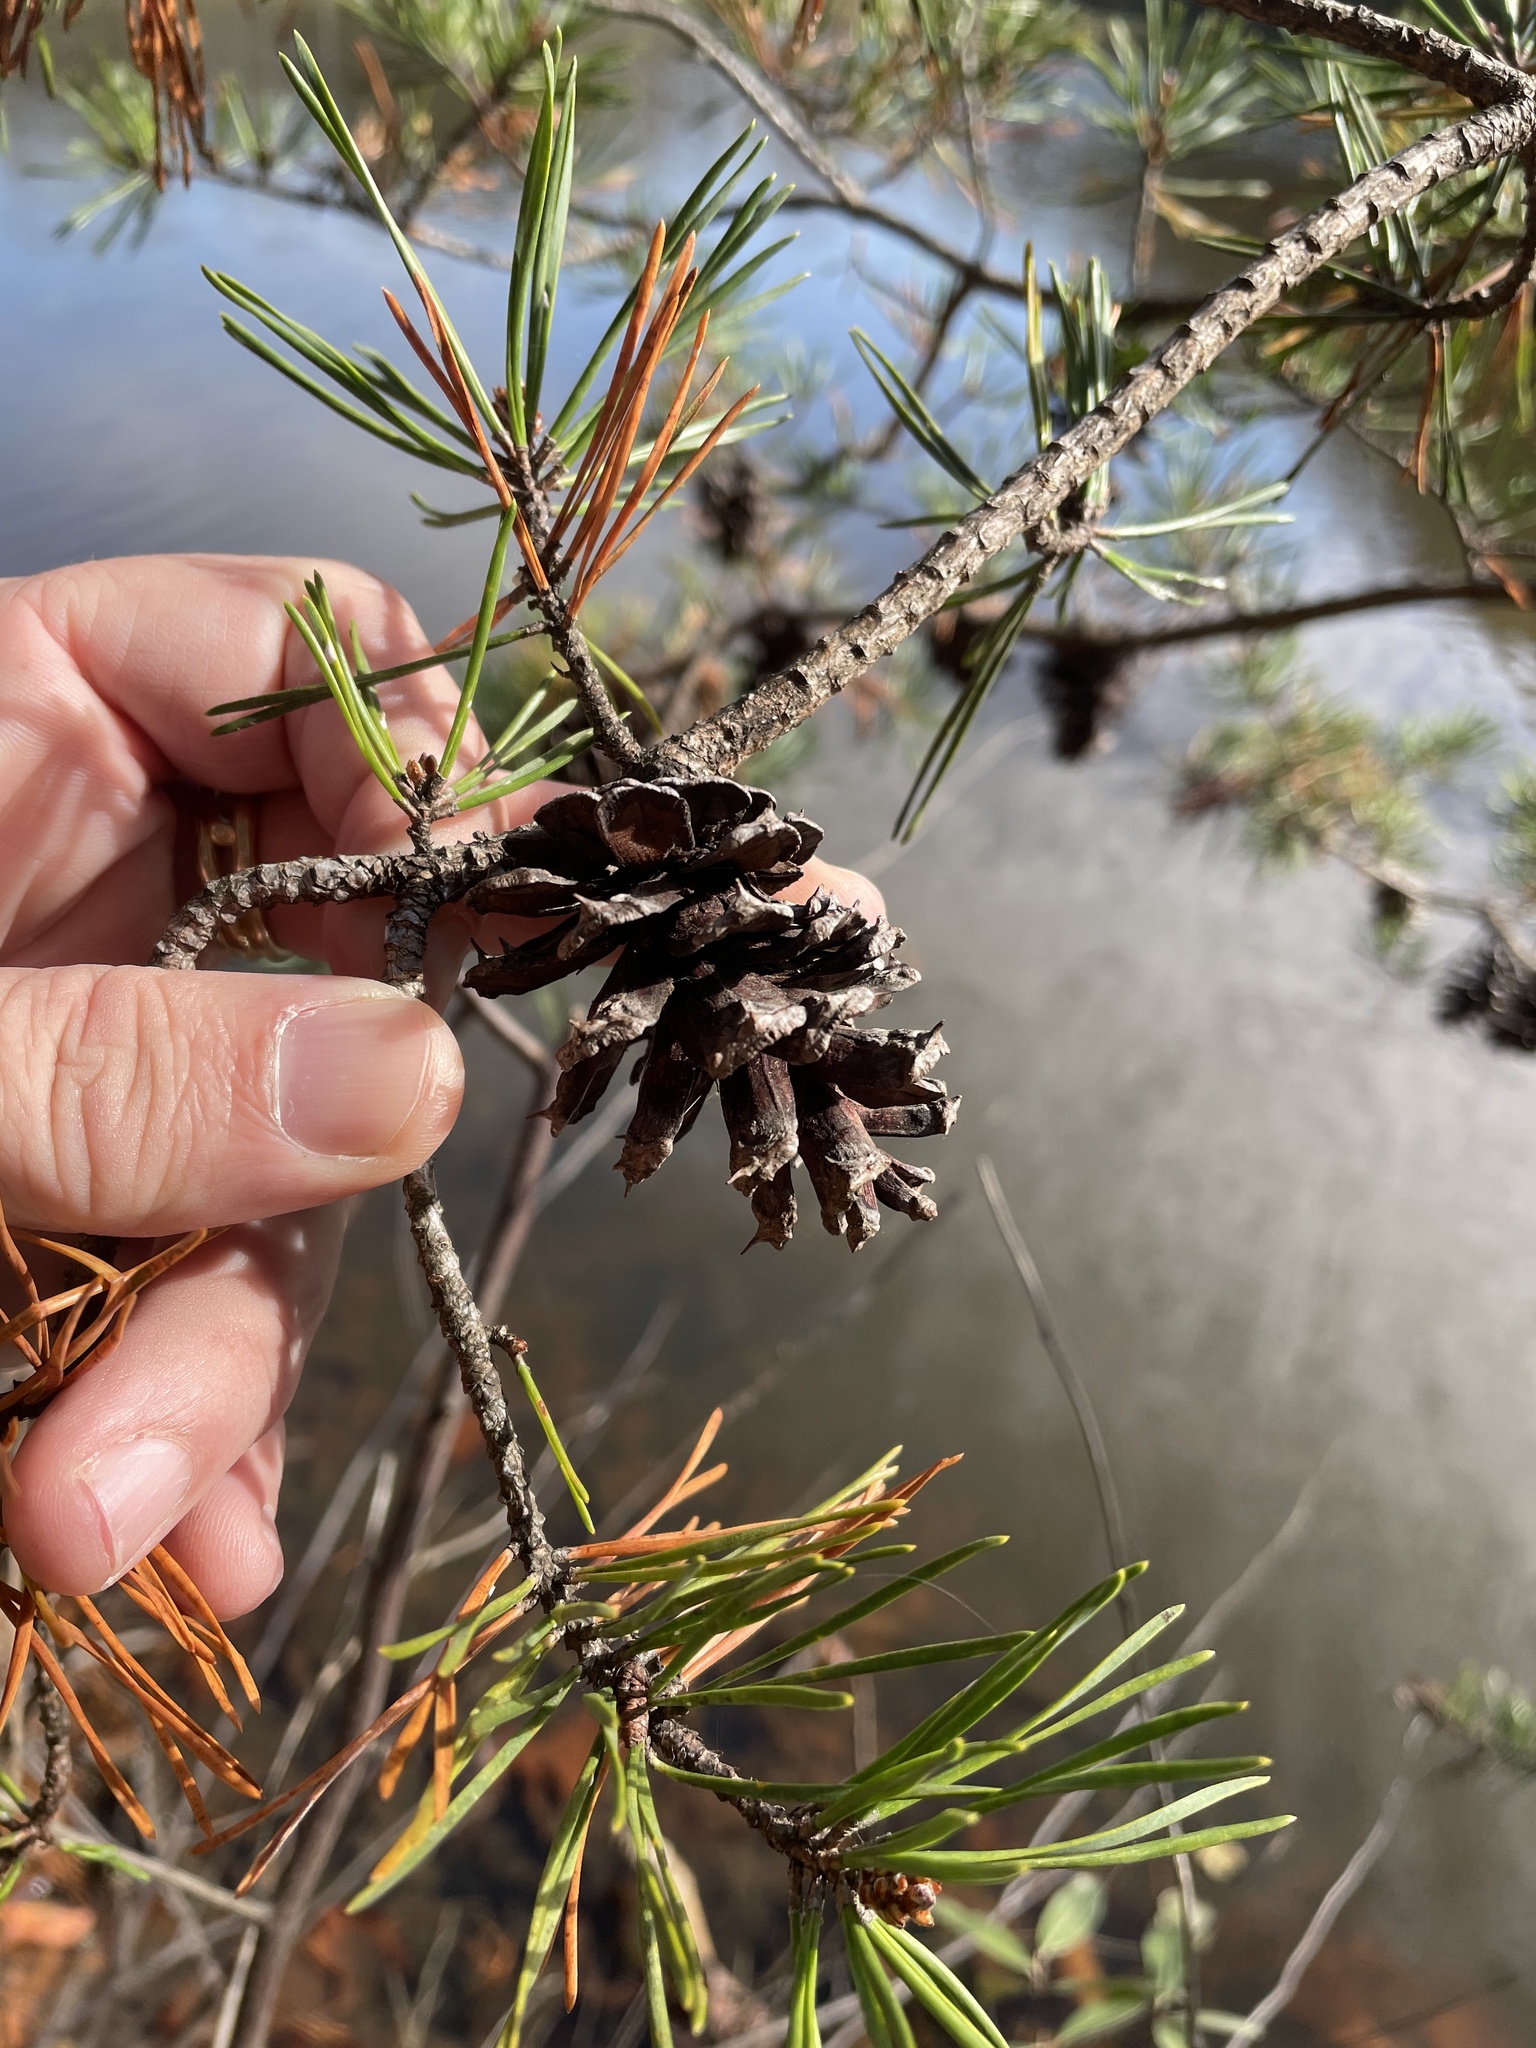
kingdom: Plantae
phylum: Tracheophyta
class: Pinopsida
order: Pinales
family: Pinaceae
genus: Pinus
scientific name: Pinus virginiana
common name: Scrub pine
